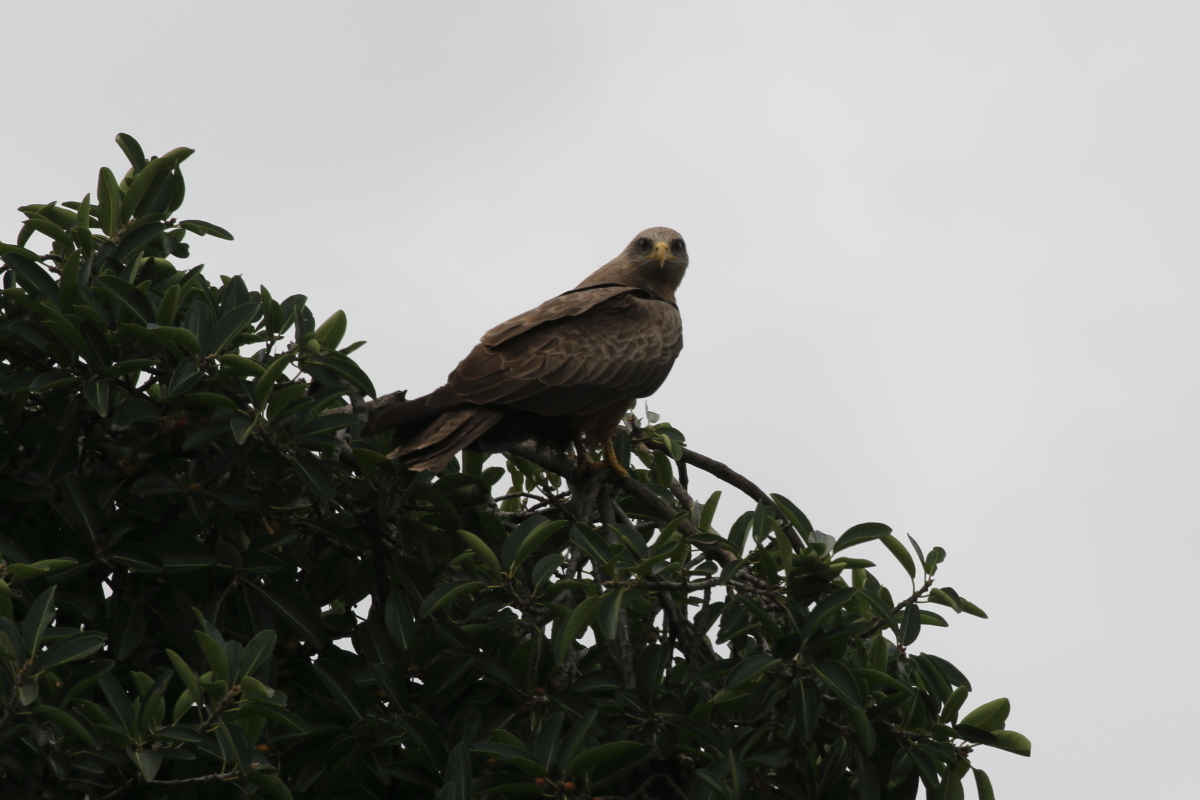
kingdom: Animalia
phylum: Chordata
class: Aves
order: Accipitriformes
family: Accipitridae
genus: Milvus
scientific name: Milvus migrans
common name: Black kite
